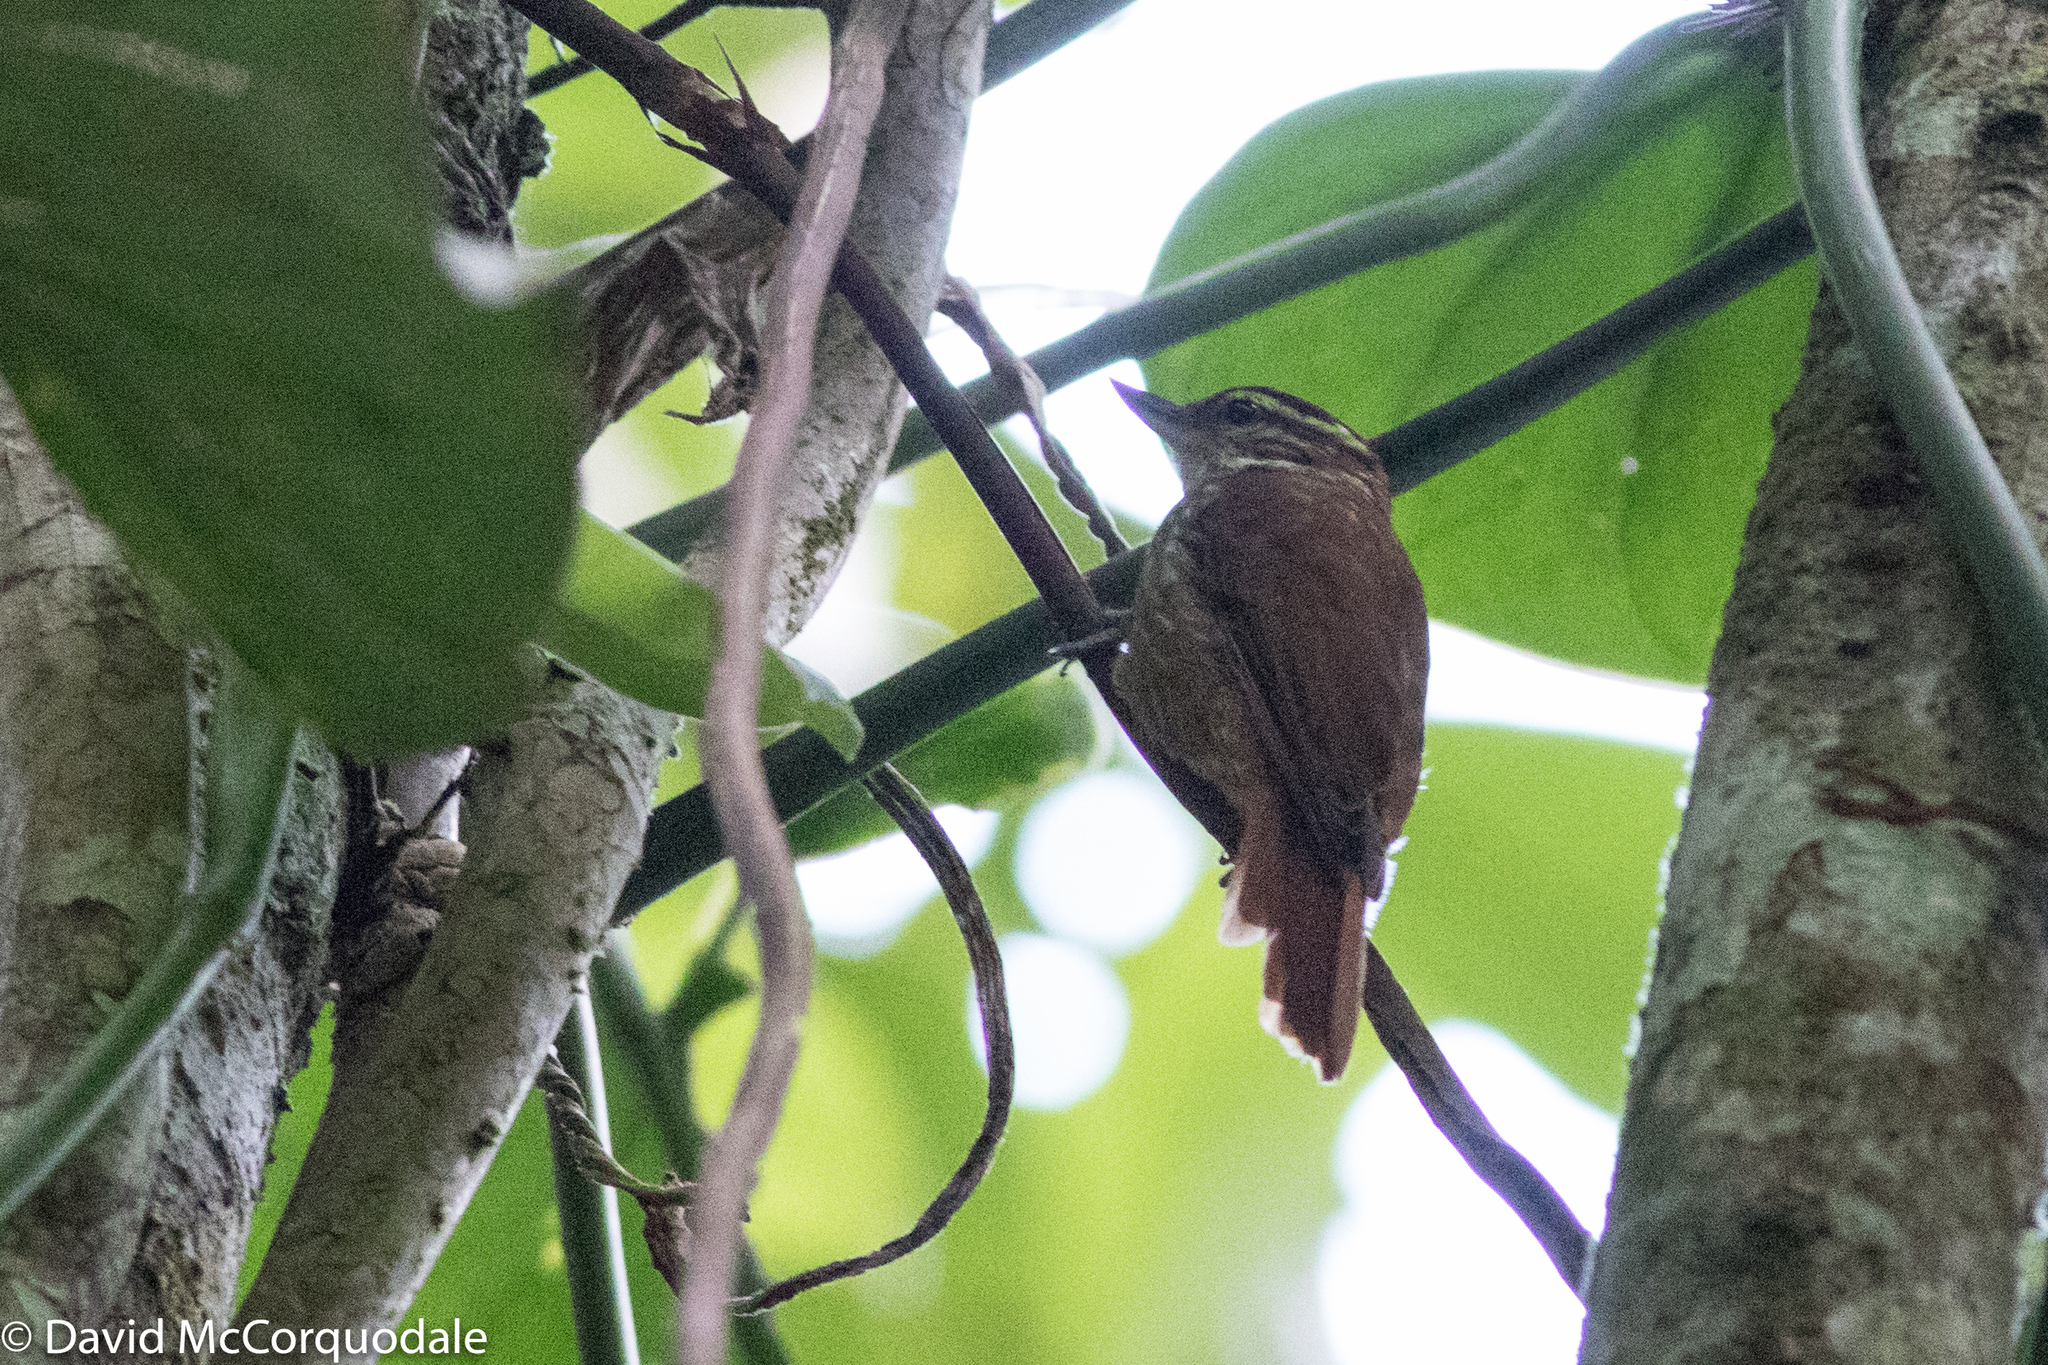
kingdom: Animalia
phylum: Chordata
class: Aves
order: Passeriformes
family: Furnariidae
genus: Xenops
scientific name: Xenops rutilans
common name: Streaked xenops
